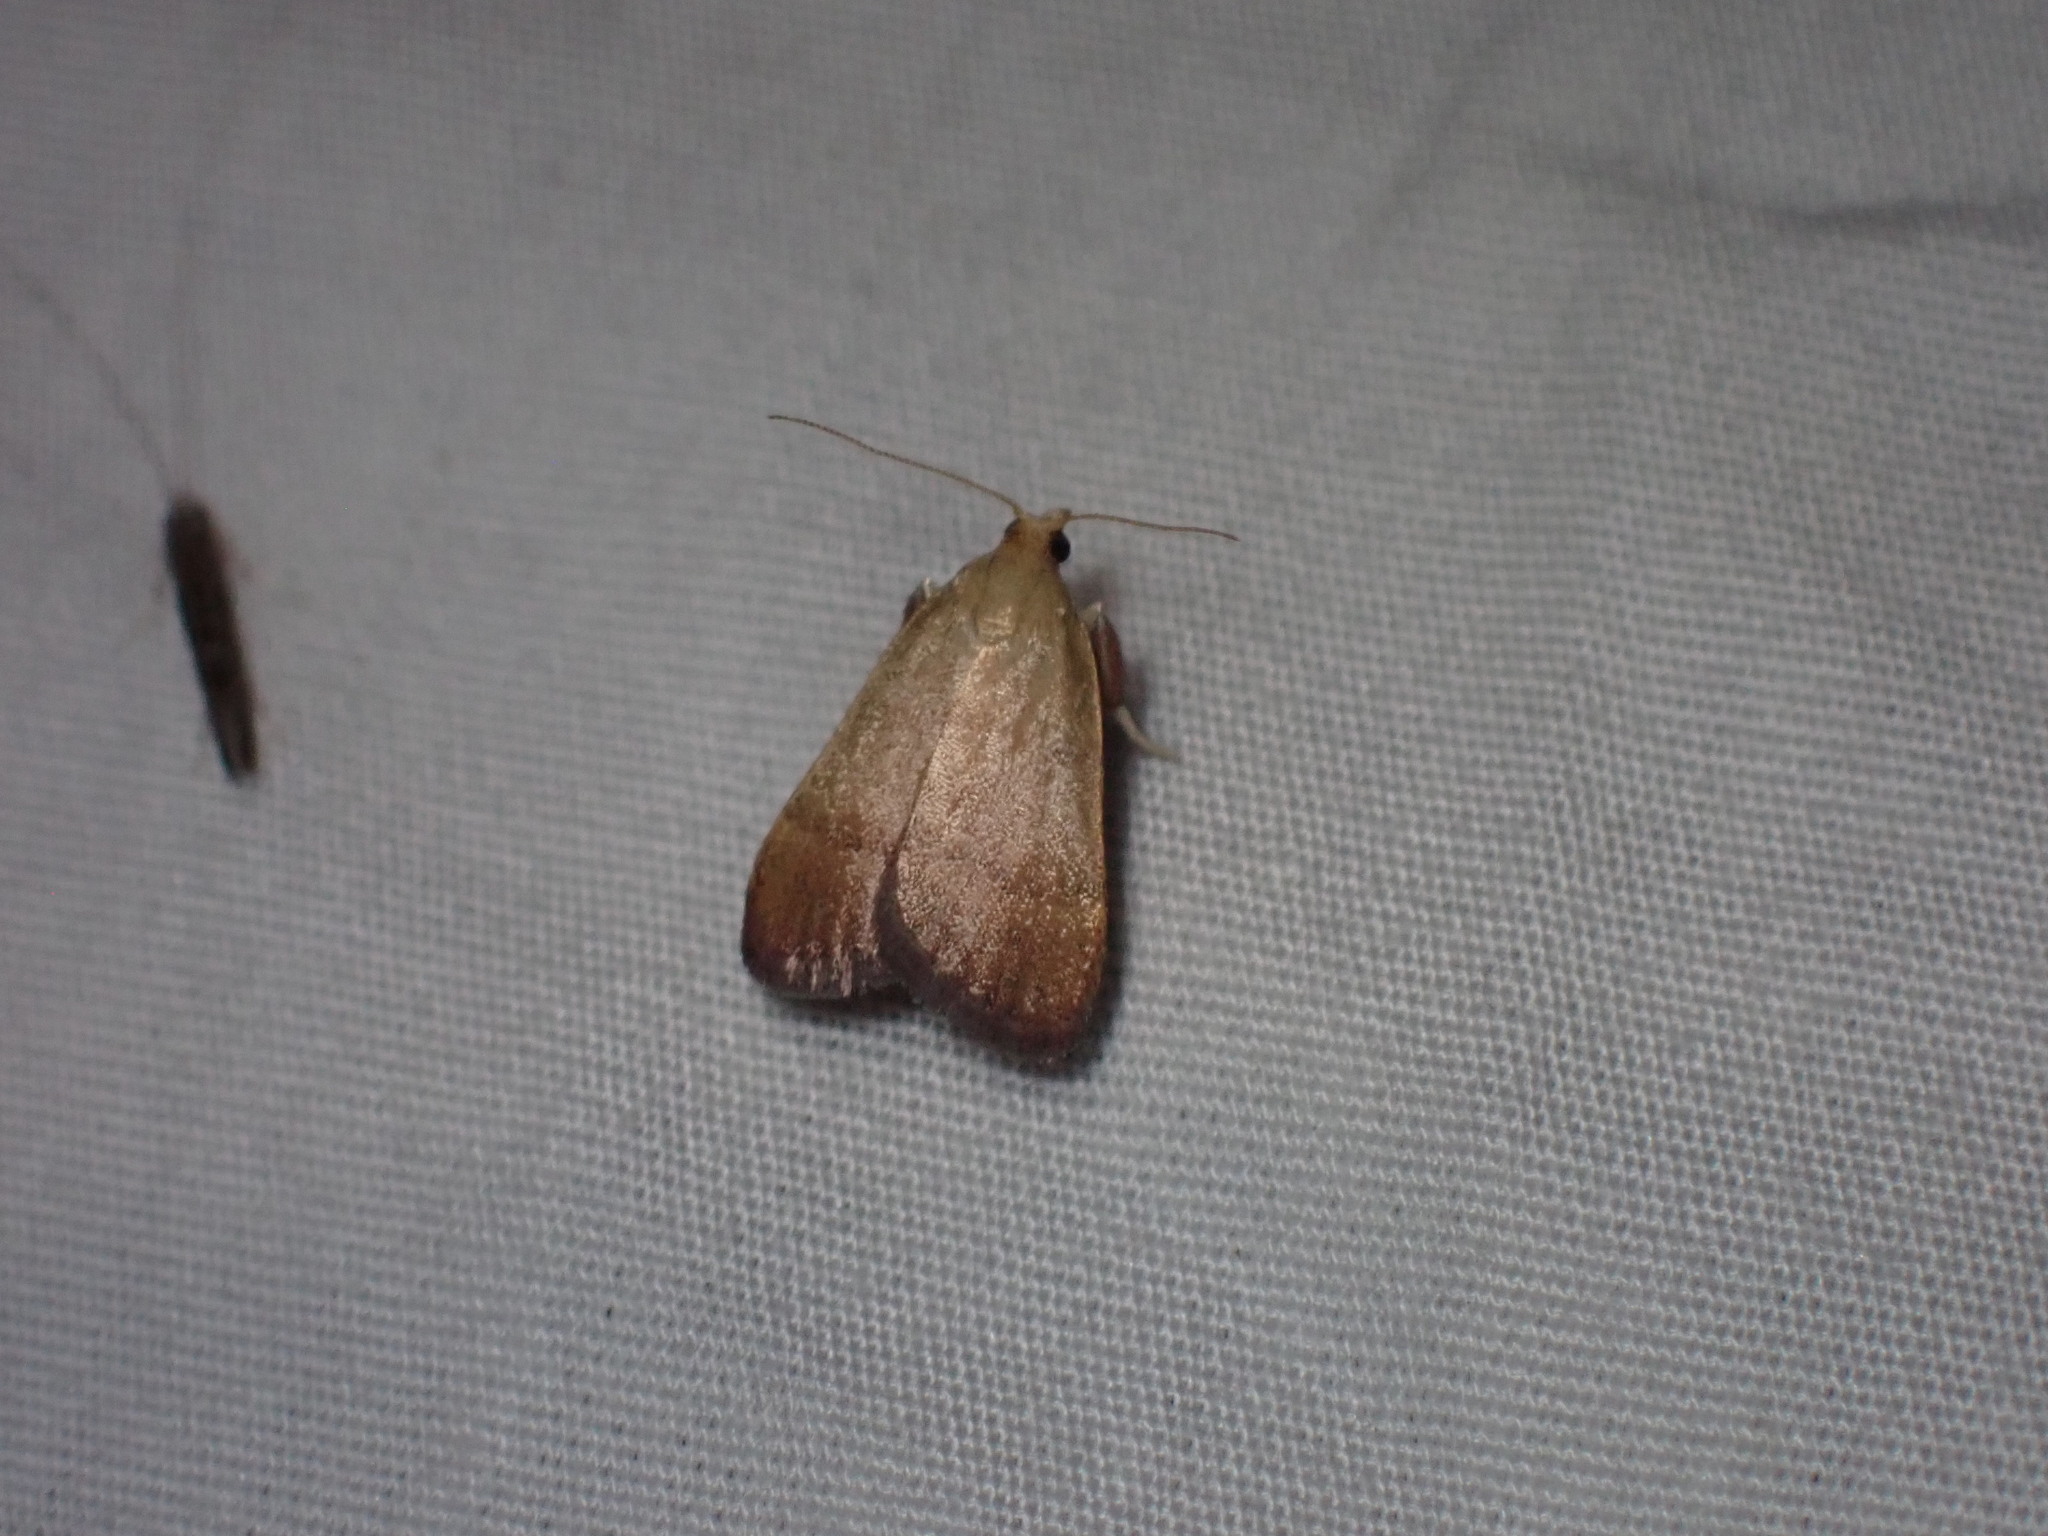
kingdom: Animalia
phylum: Arthropoda
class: Insecta
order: Lepidoptera
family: Pyralidae
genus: Condylolomia
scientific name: Condylolomia participialis
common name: Drab condylolomia moth
